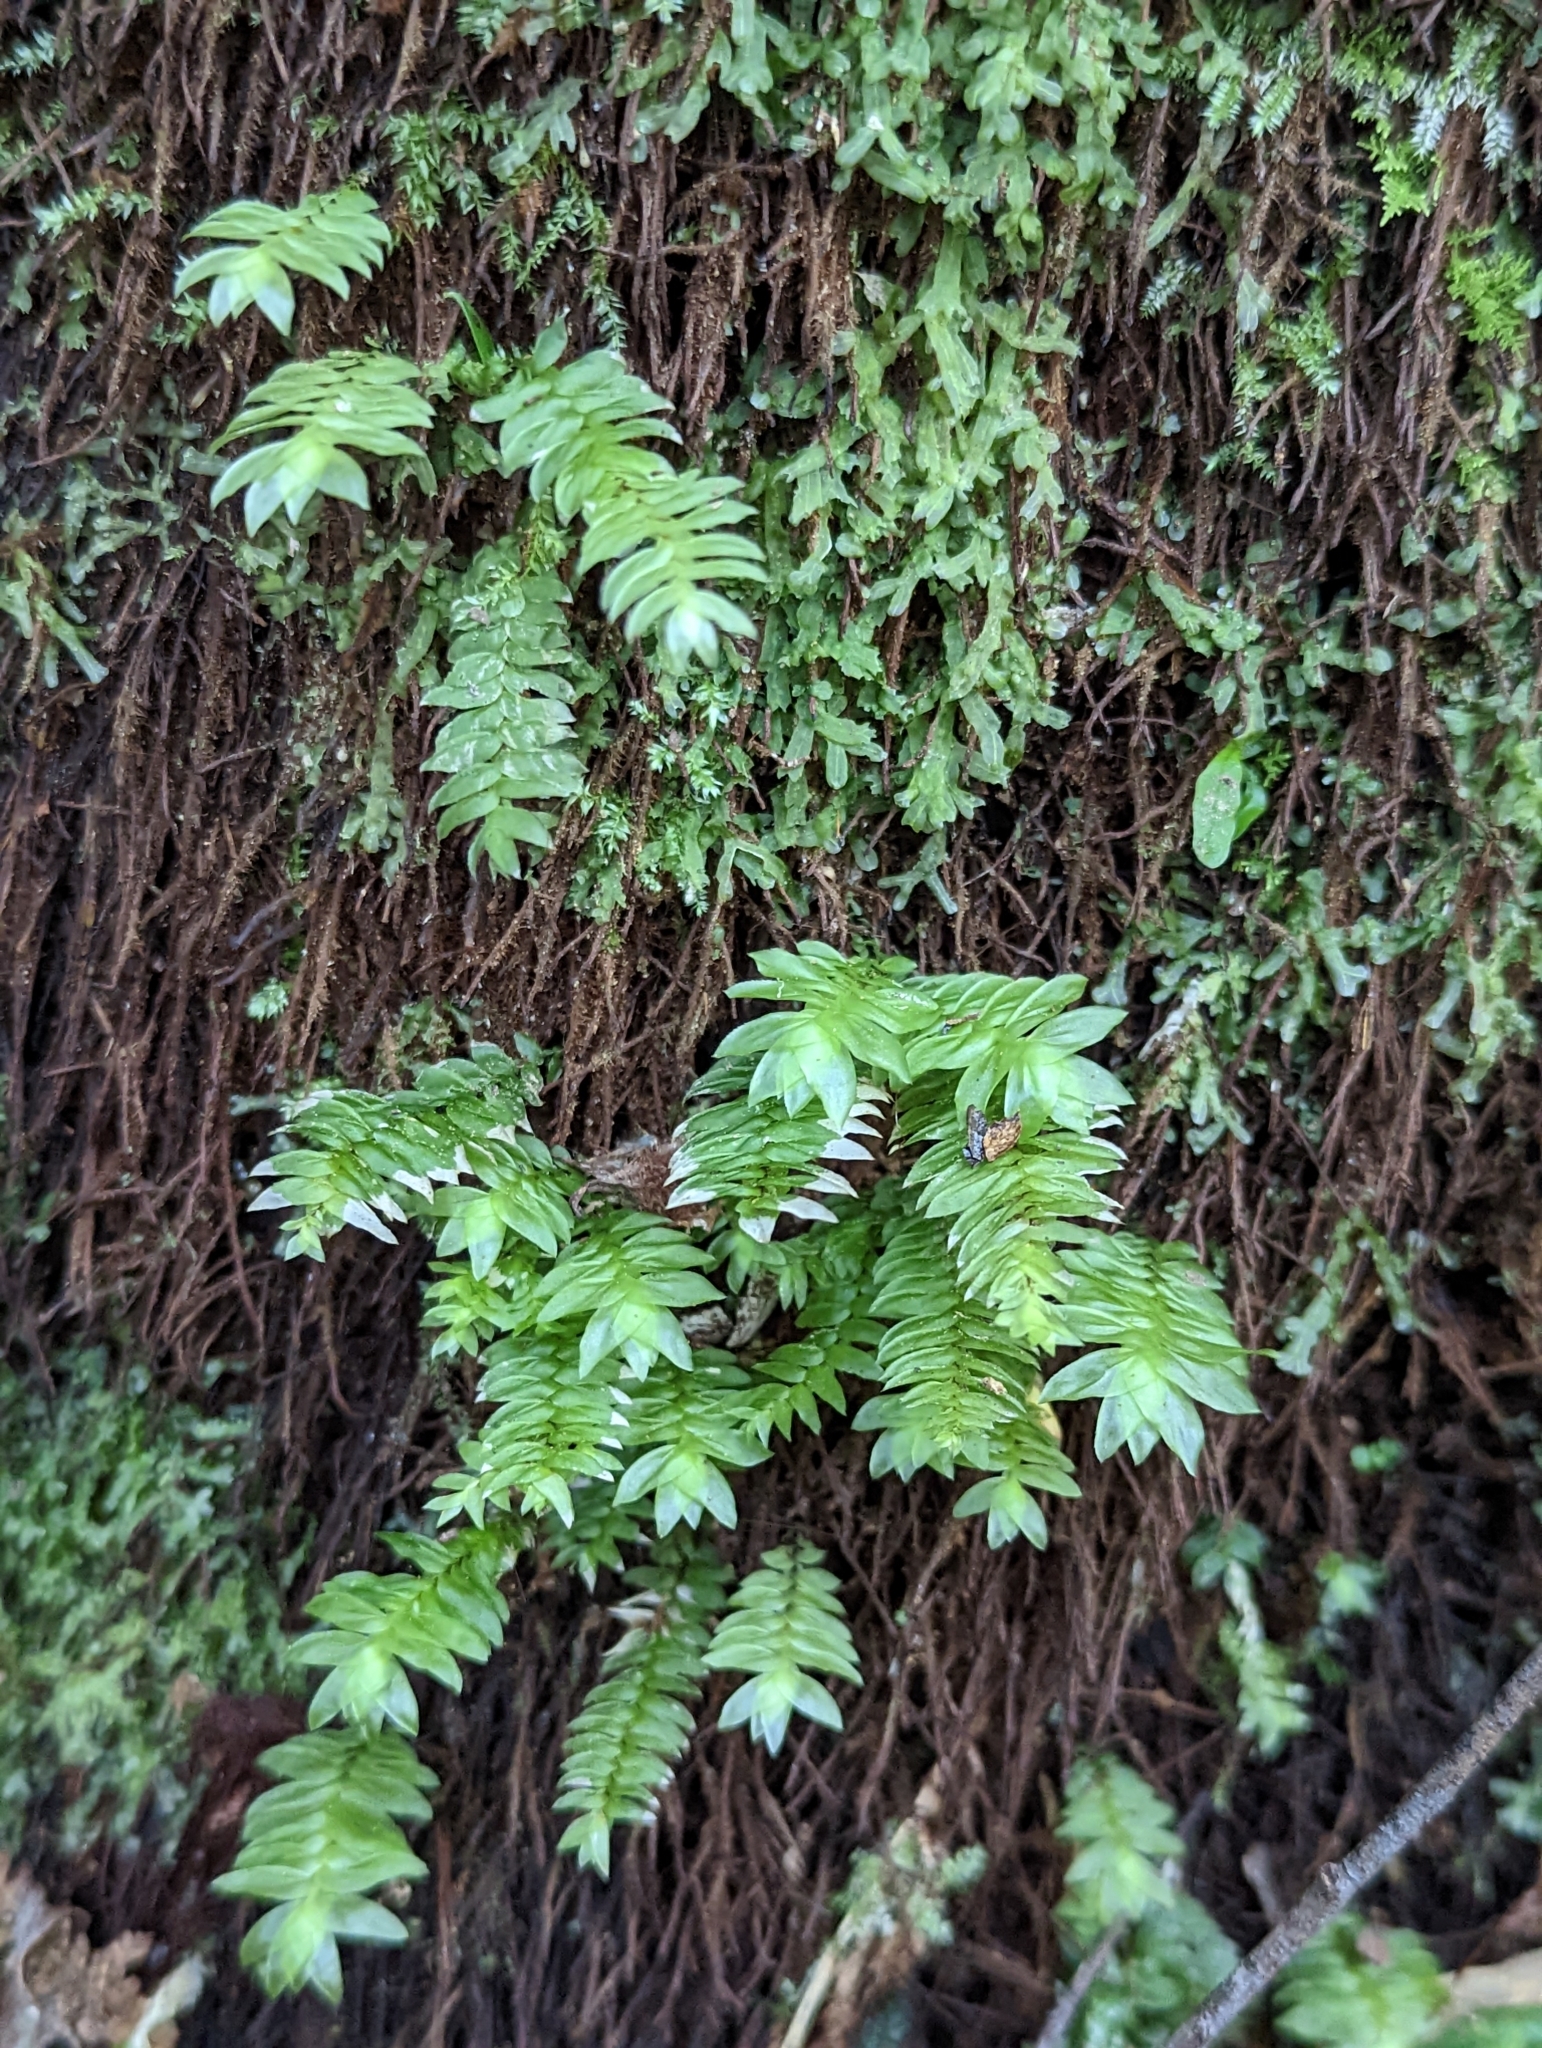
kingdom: Plantae
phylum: Bryophyta
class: Bryopsida
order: Hypopterygiales
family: Hypopterygiaceae
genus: Cyathophorum
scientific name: Cyathophorum bulbosum
